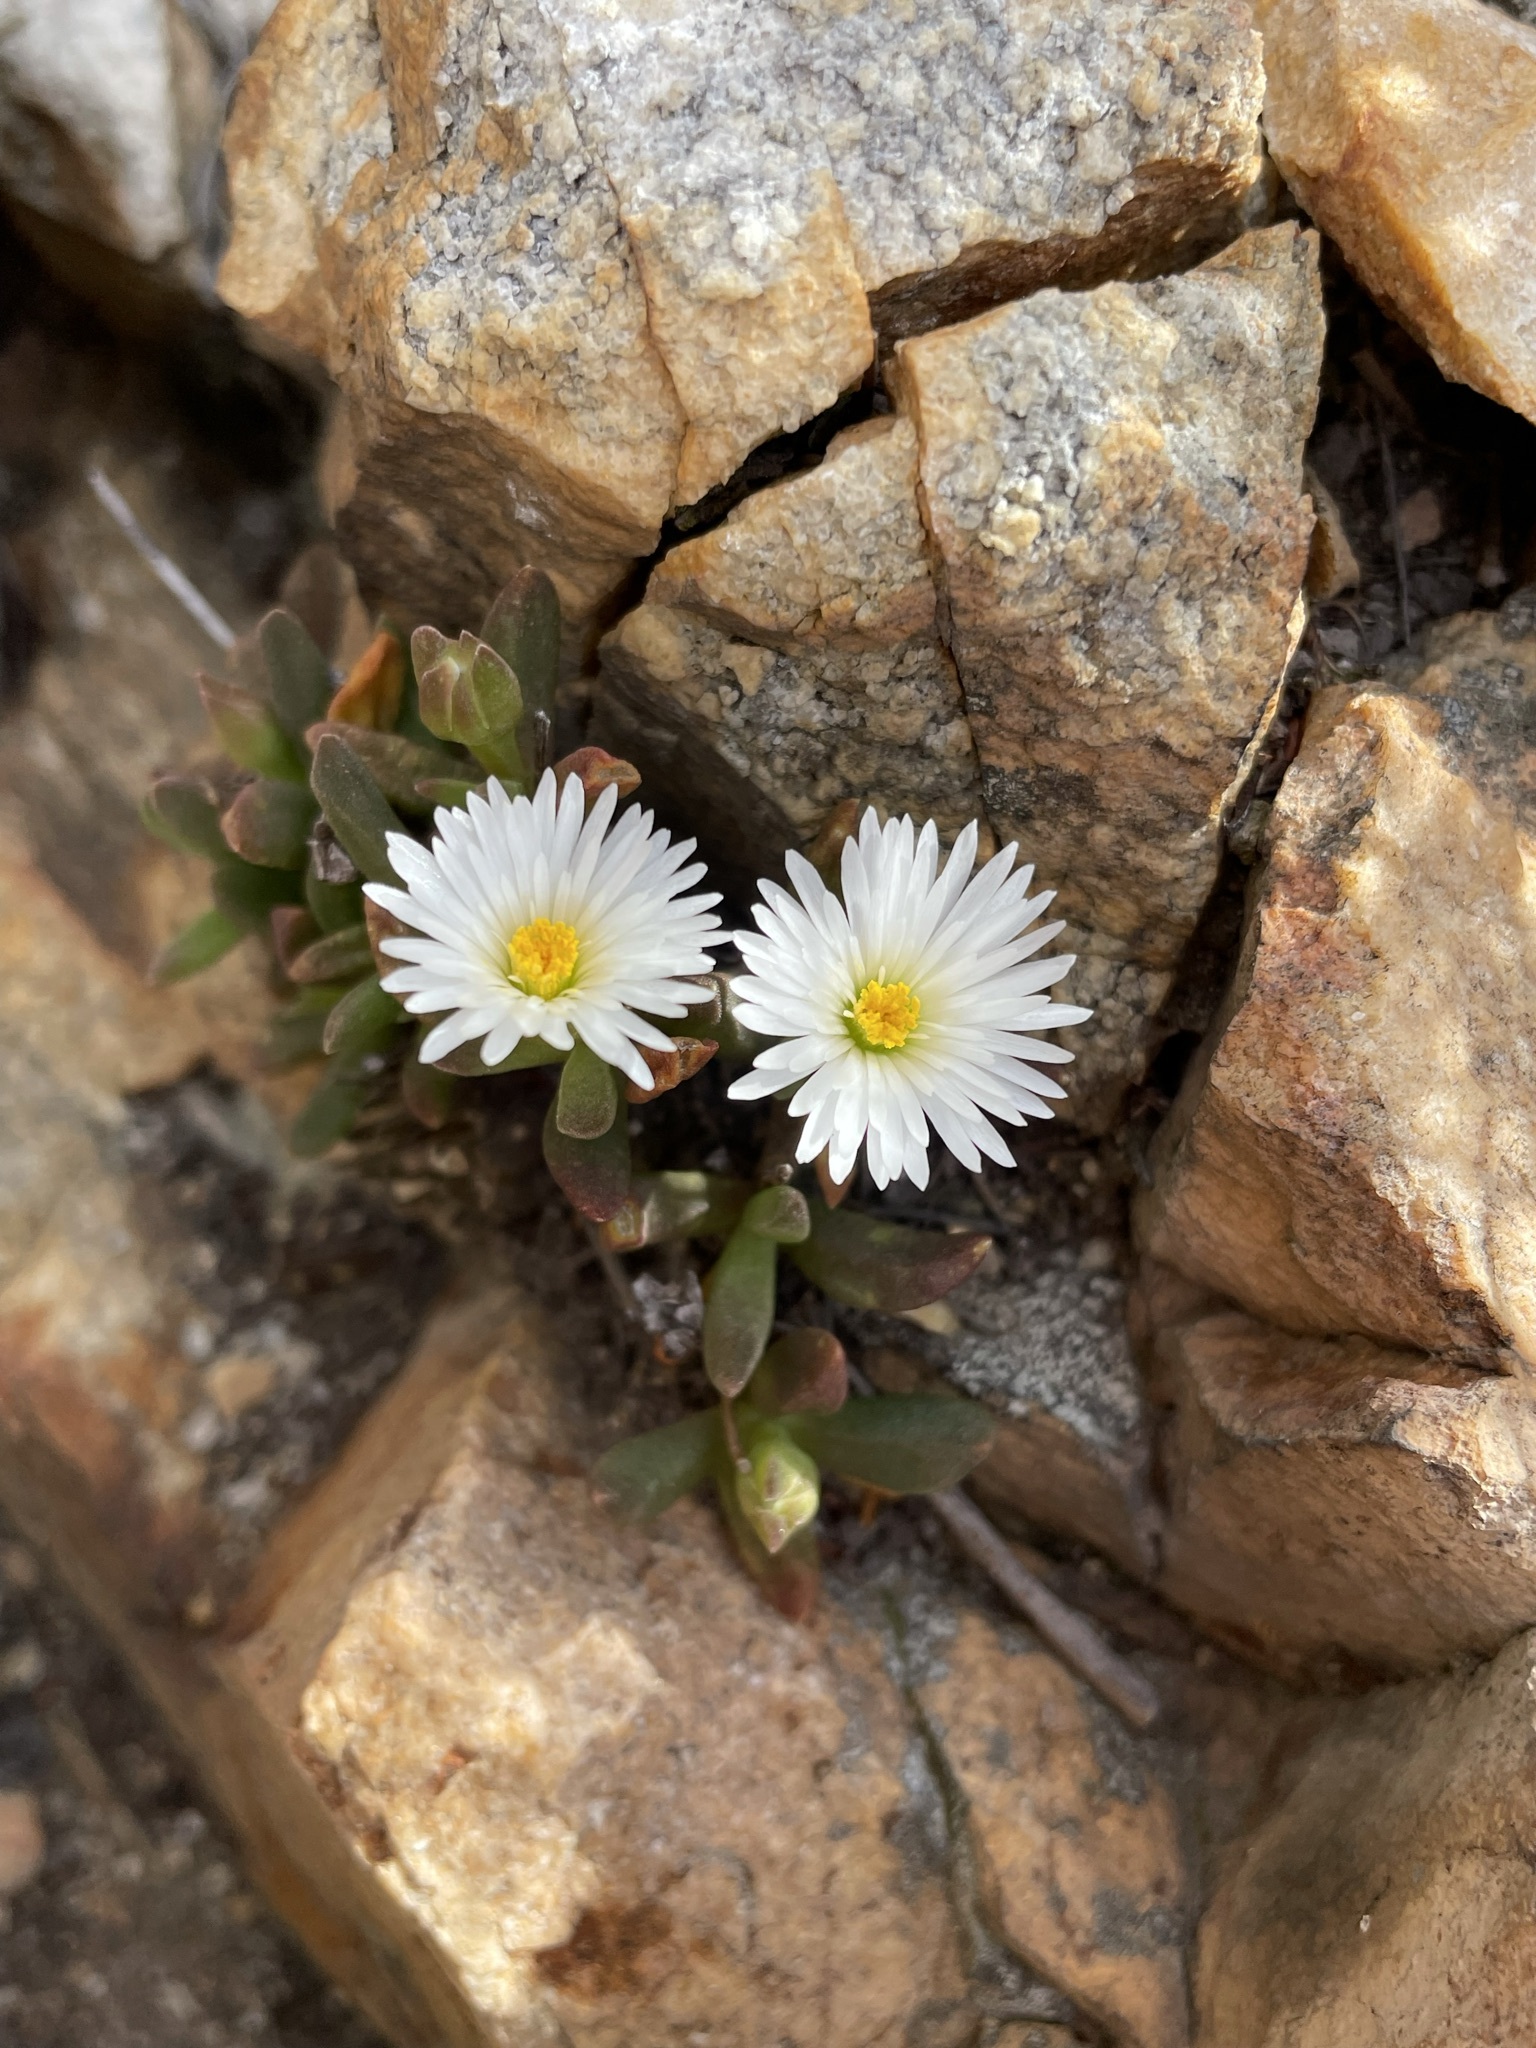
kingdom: Plantae
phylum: Tracheophyta
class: Magnoliopsida
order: Caryophyllales
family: Aizoaceae
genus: Delosperma
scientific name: Delosperma esterhuyseniae
